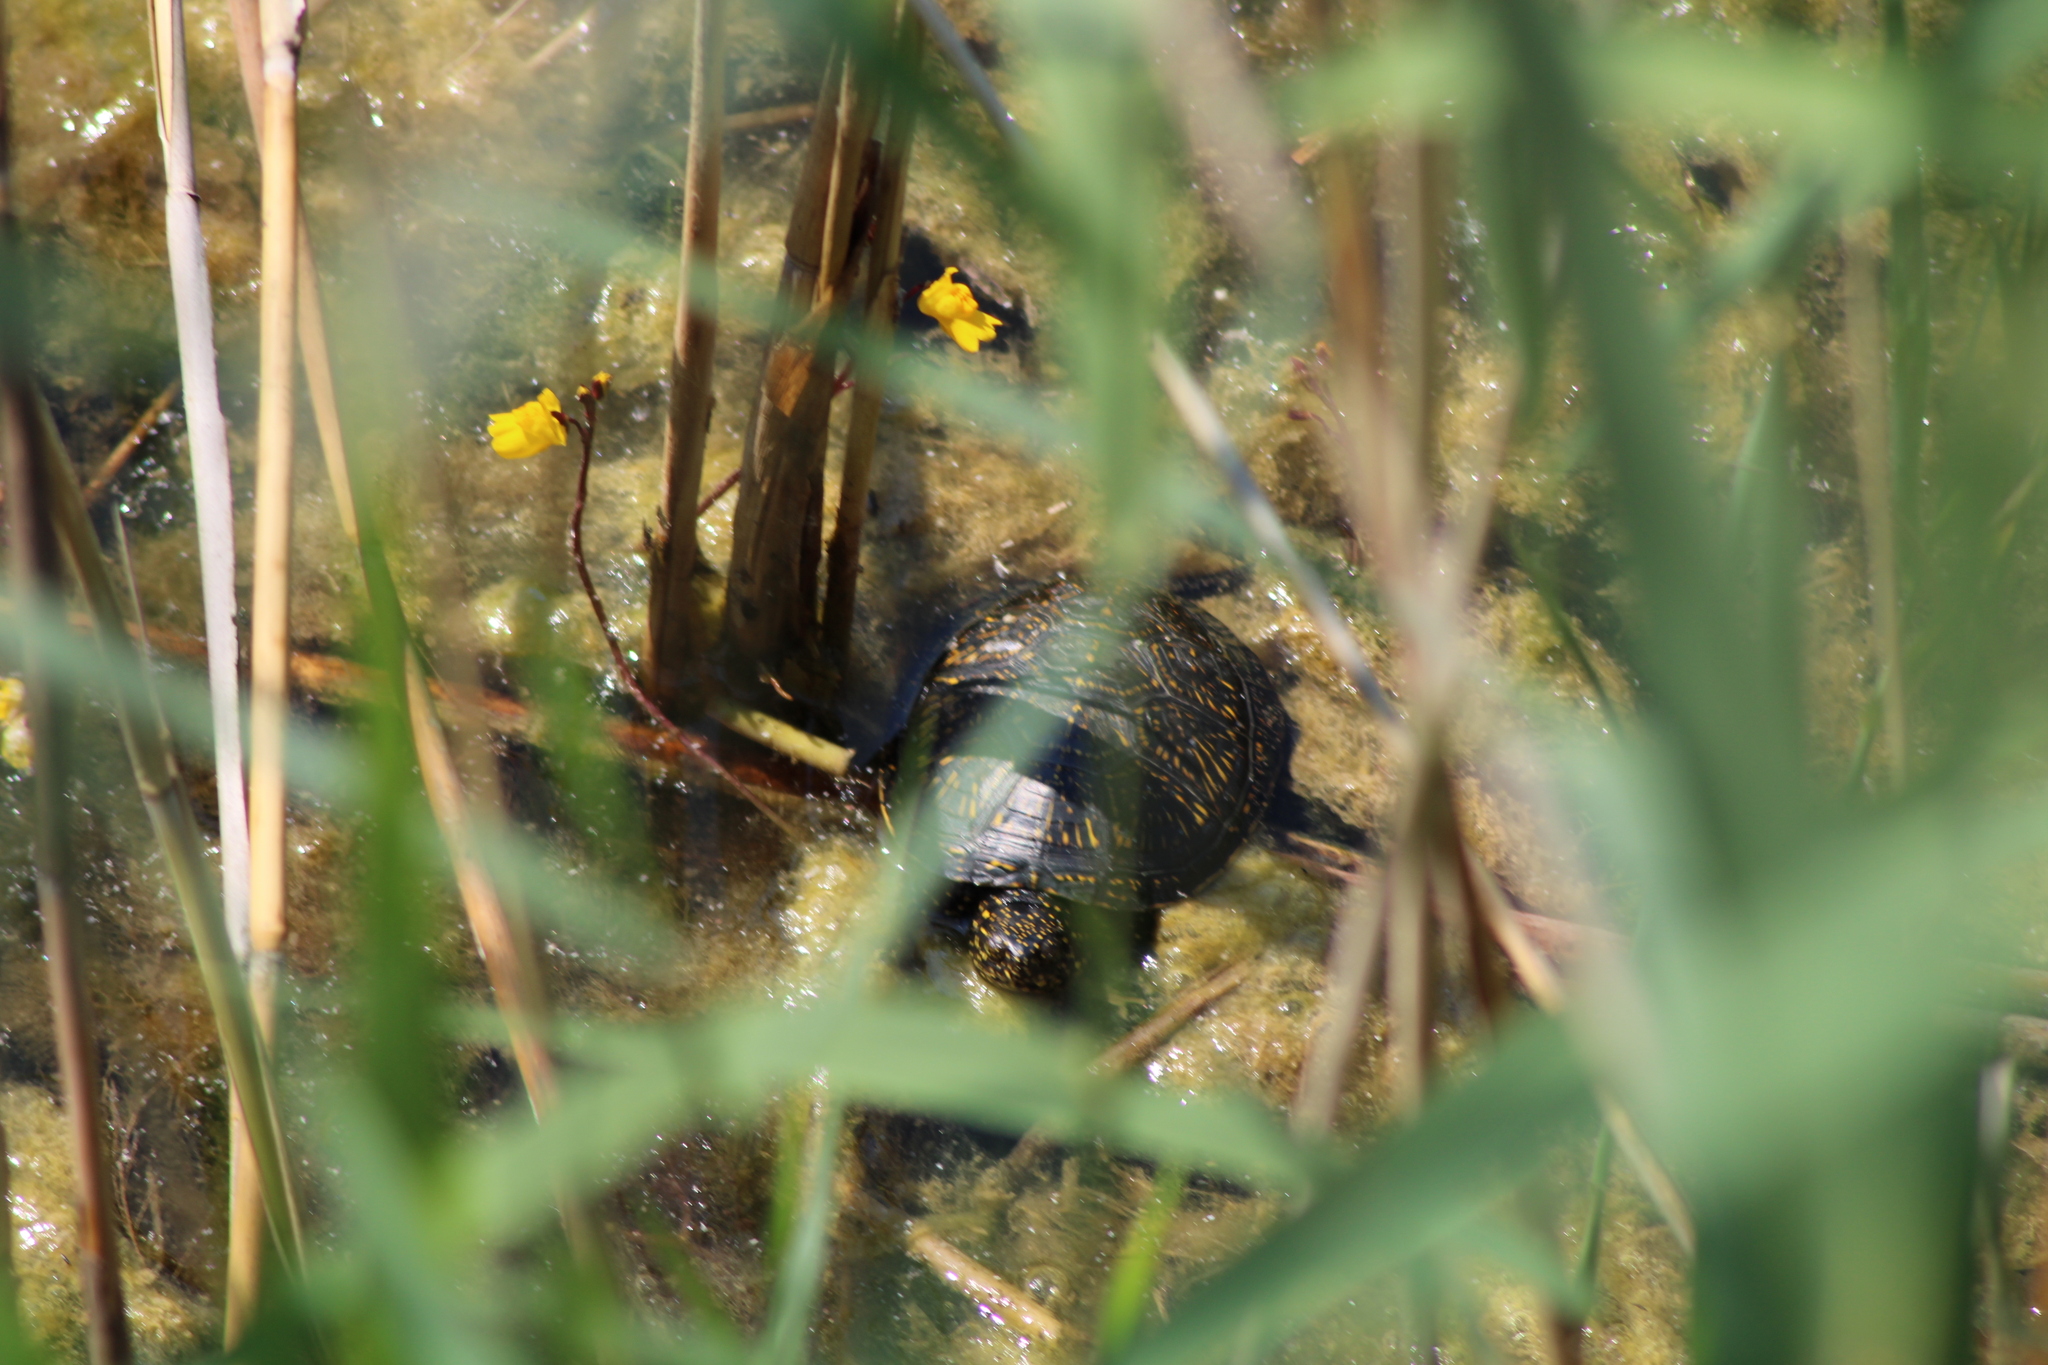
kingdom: Animalia
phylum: Chordata
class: Testudines
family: Emydidae
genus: Emys
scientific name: Emys orbicularis
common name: European pond turtle
